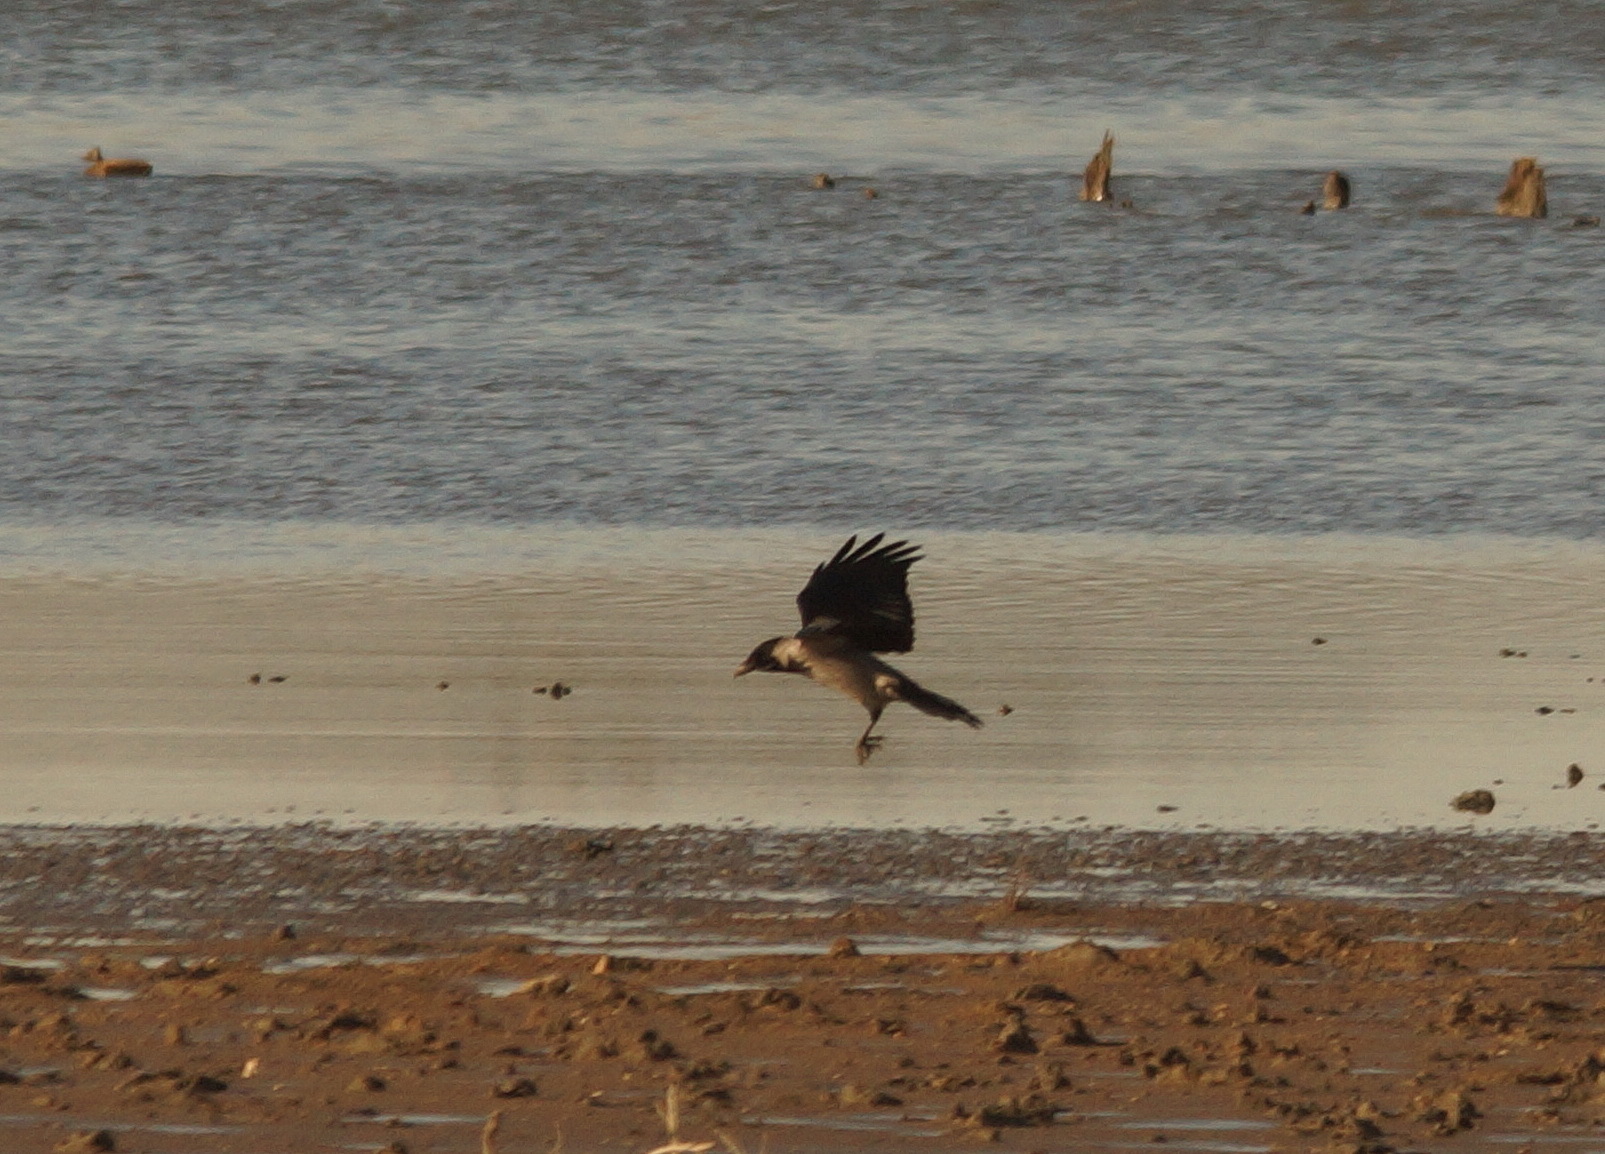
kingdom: Animalia
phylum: Chordata
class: Aves
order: Passeriformes
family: Corvidae
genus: Corvus
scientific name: Corvus cornix
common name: Hooded crow
